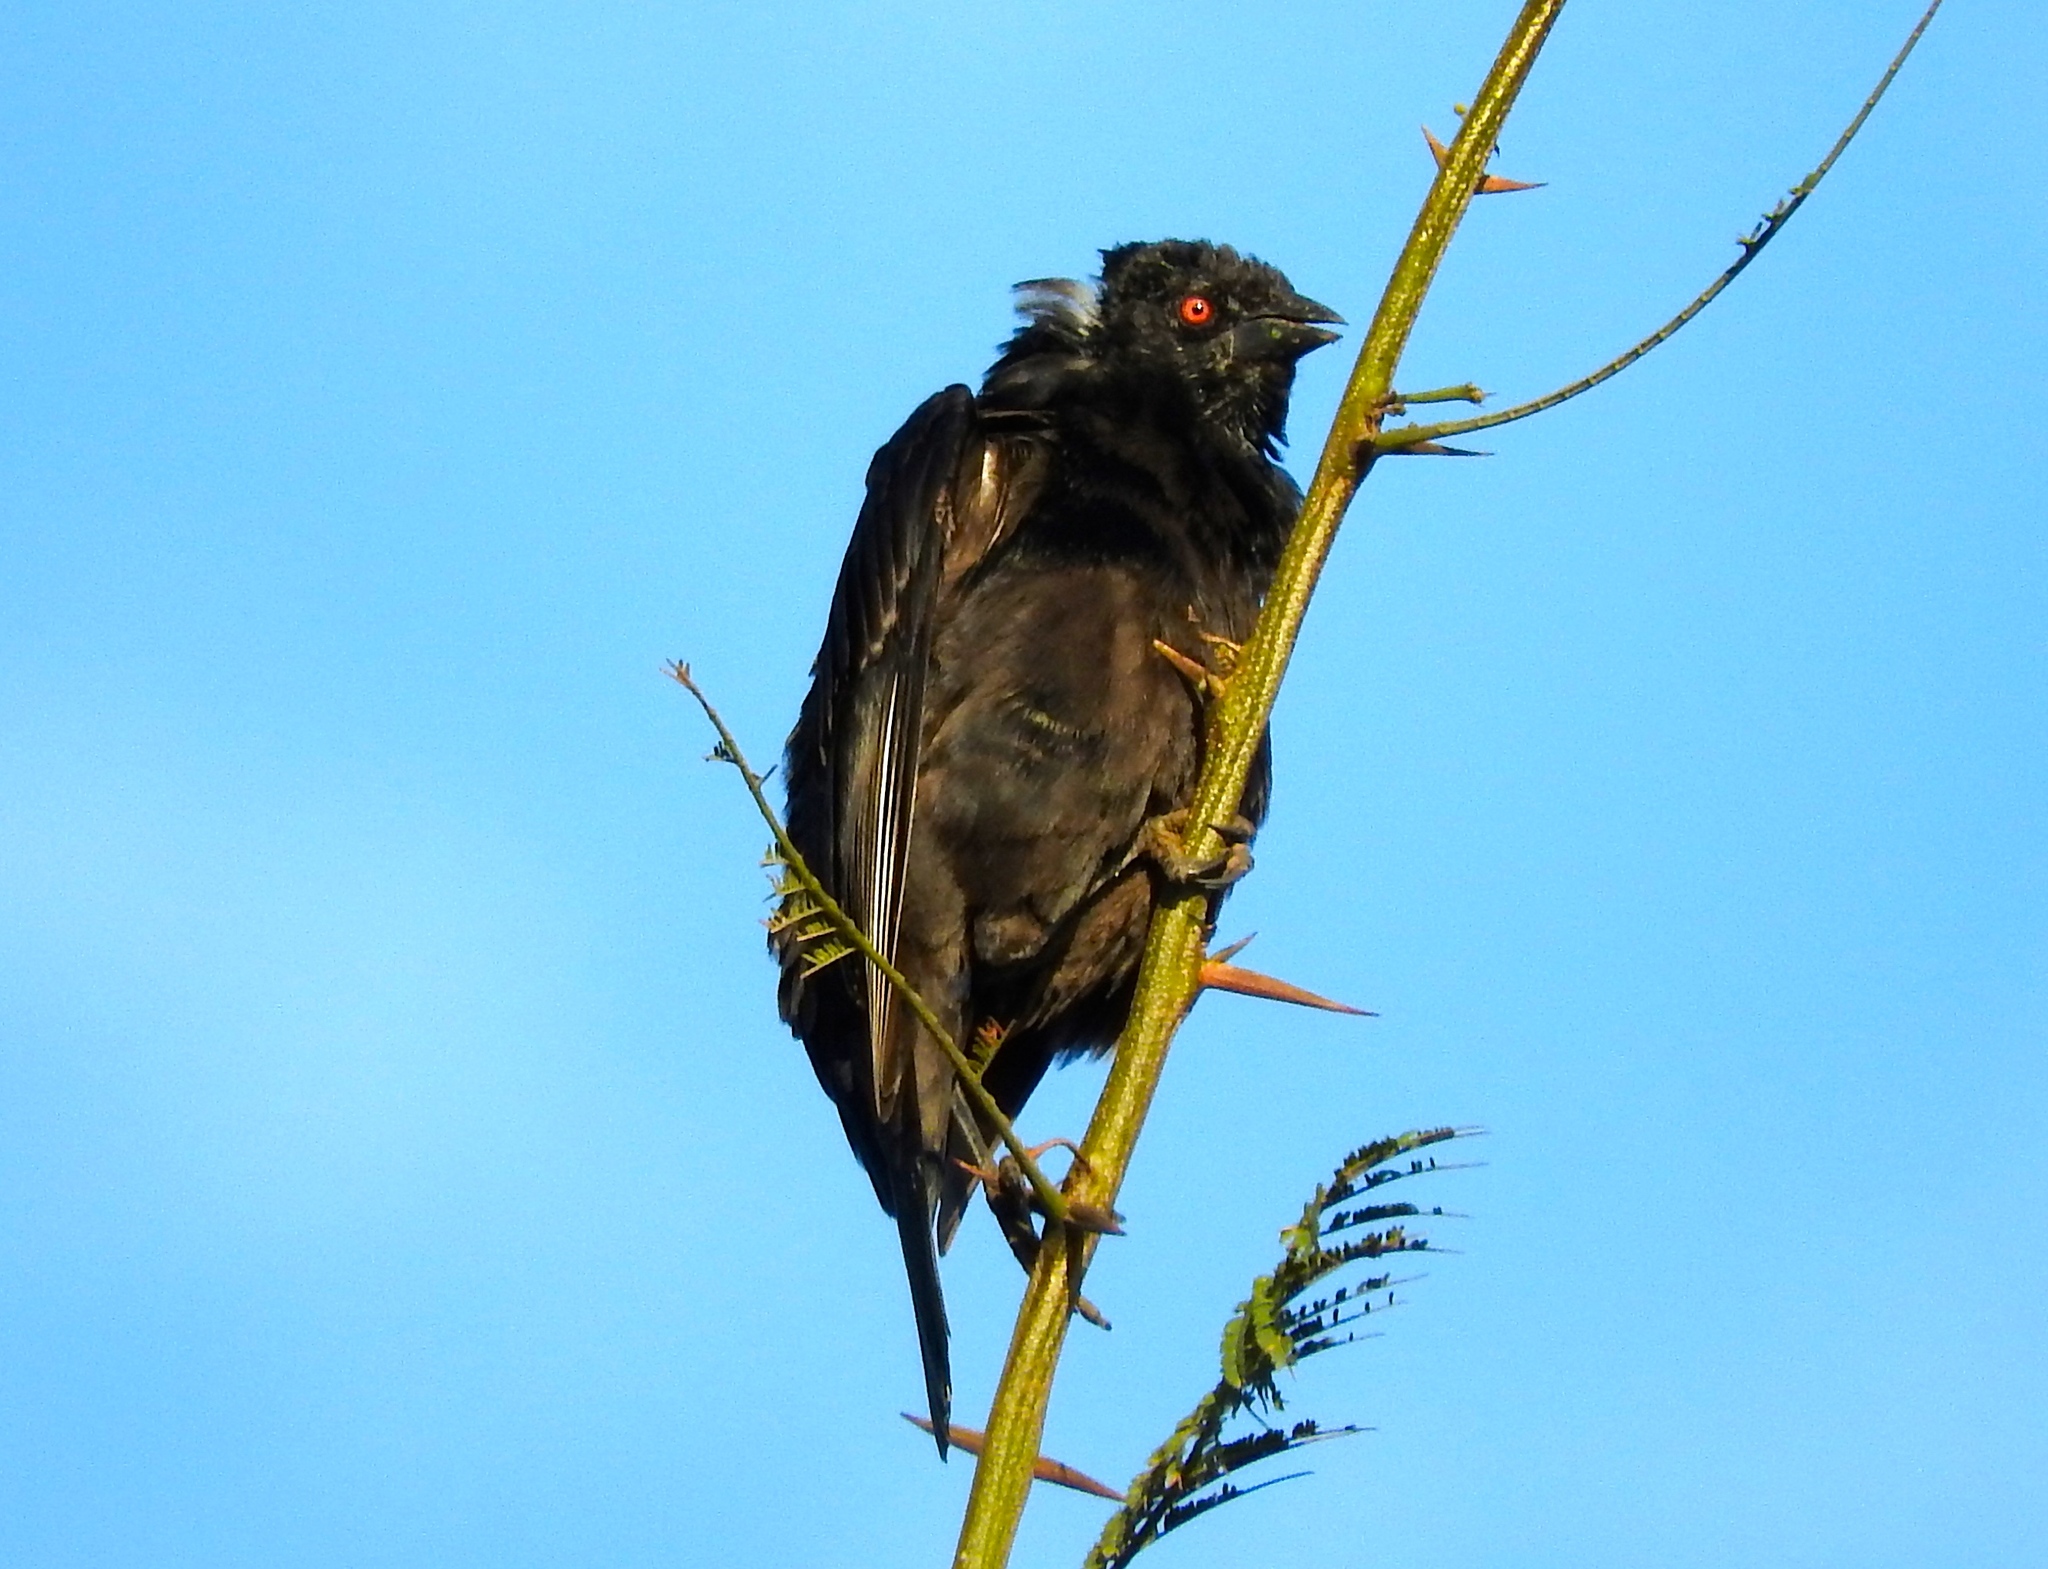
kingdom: Animalia
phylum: Chordata
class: Aves
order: Passeriformes
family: Icteridae
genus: Molothrus
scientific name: Molothrus aeneus
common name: Bronzed cowbird
